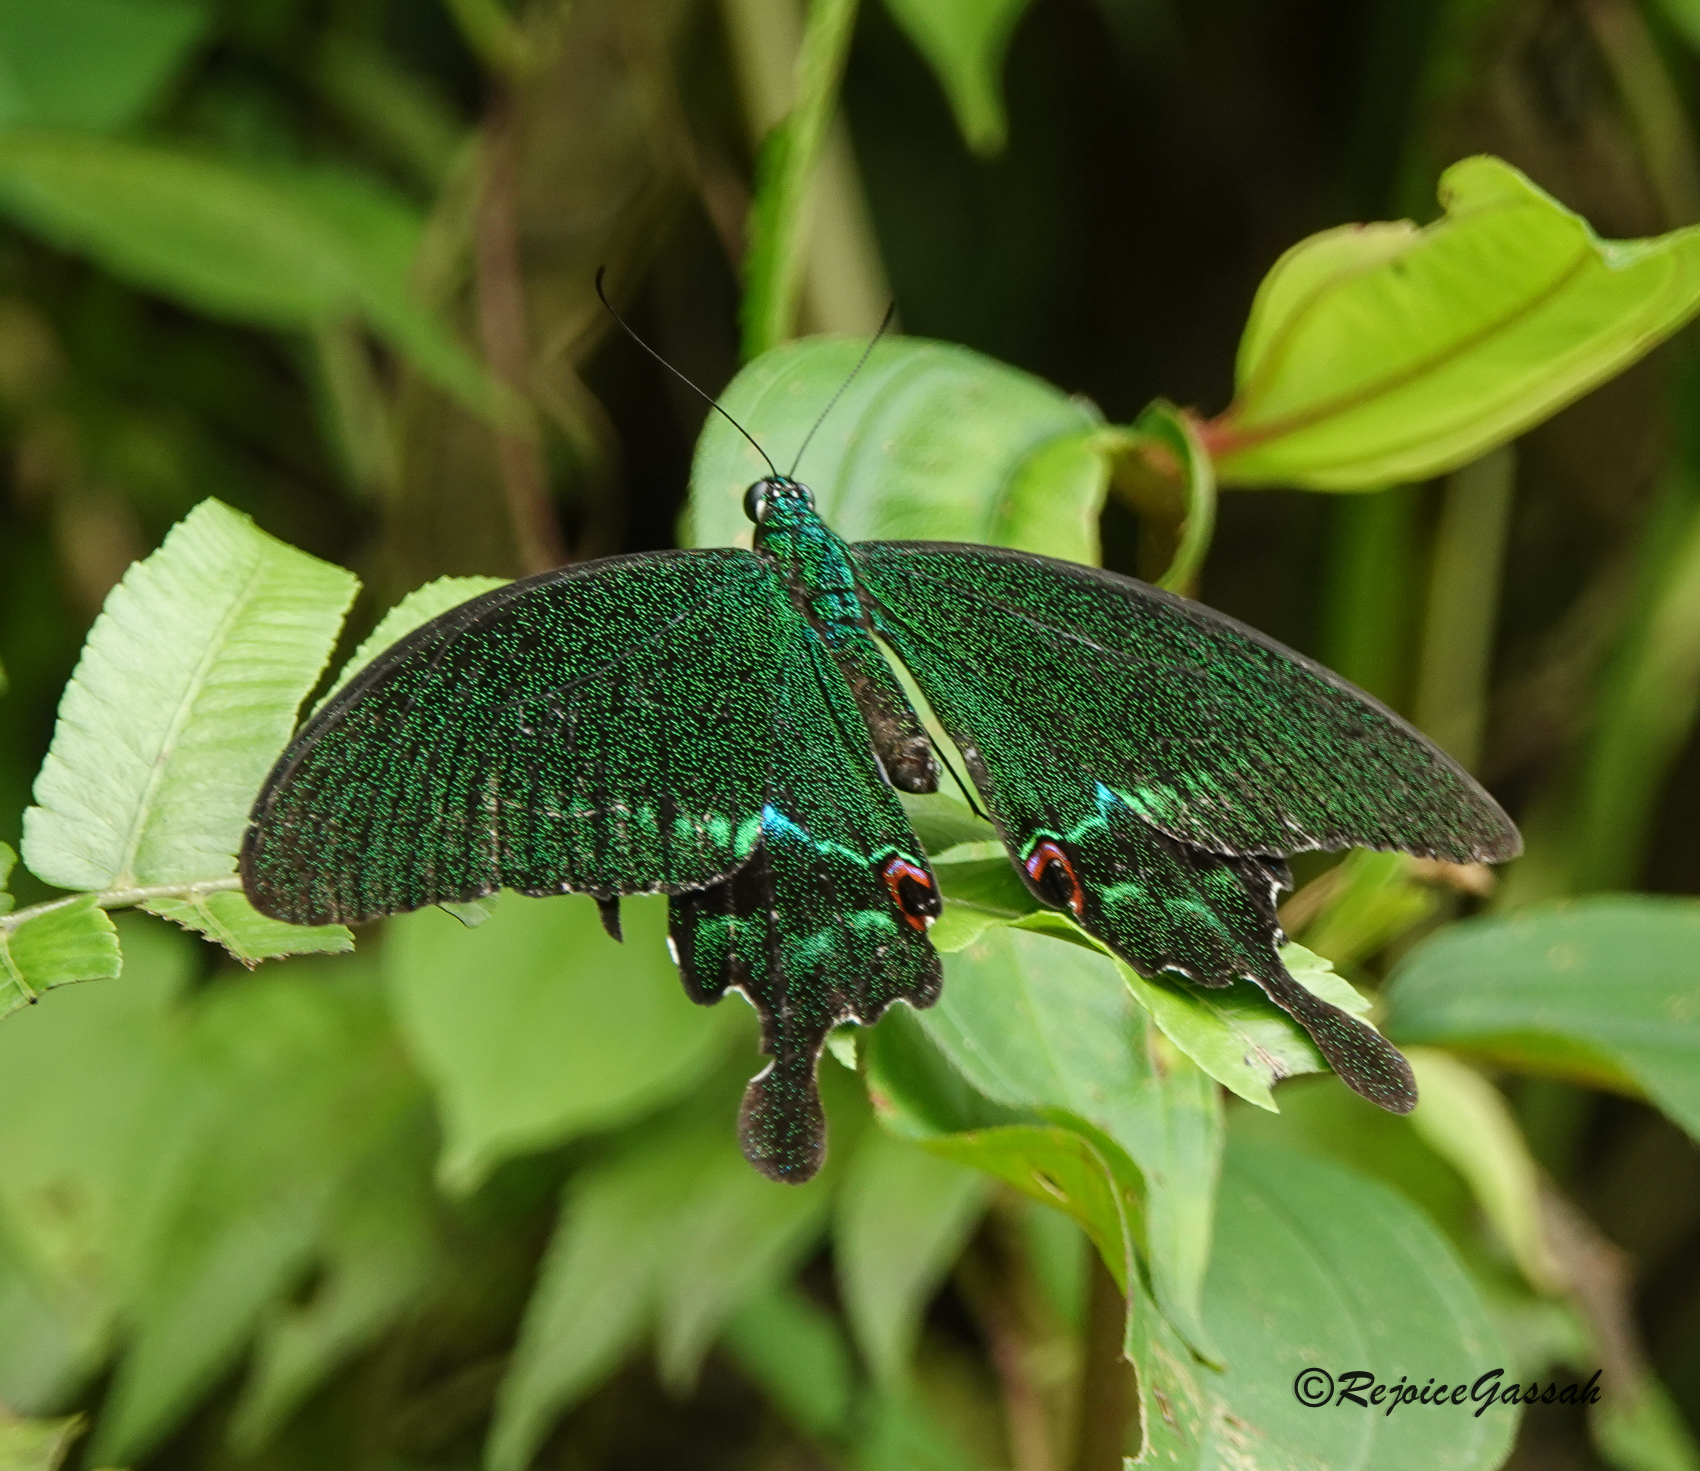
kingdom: Animalia
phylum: Arthropoda
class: Insecta
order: Lepidoptera
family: Papilionidae
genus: Papilio
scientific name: Papilio paris
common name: Paris peacock
